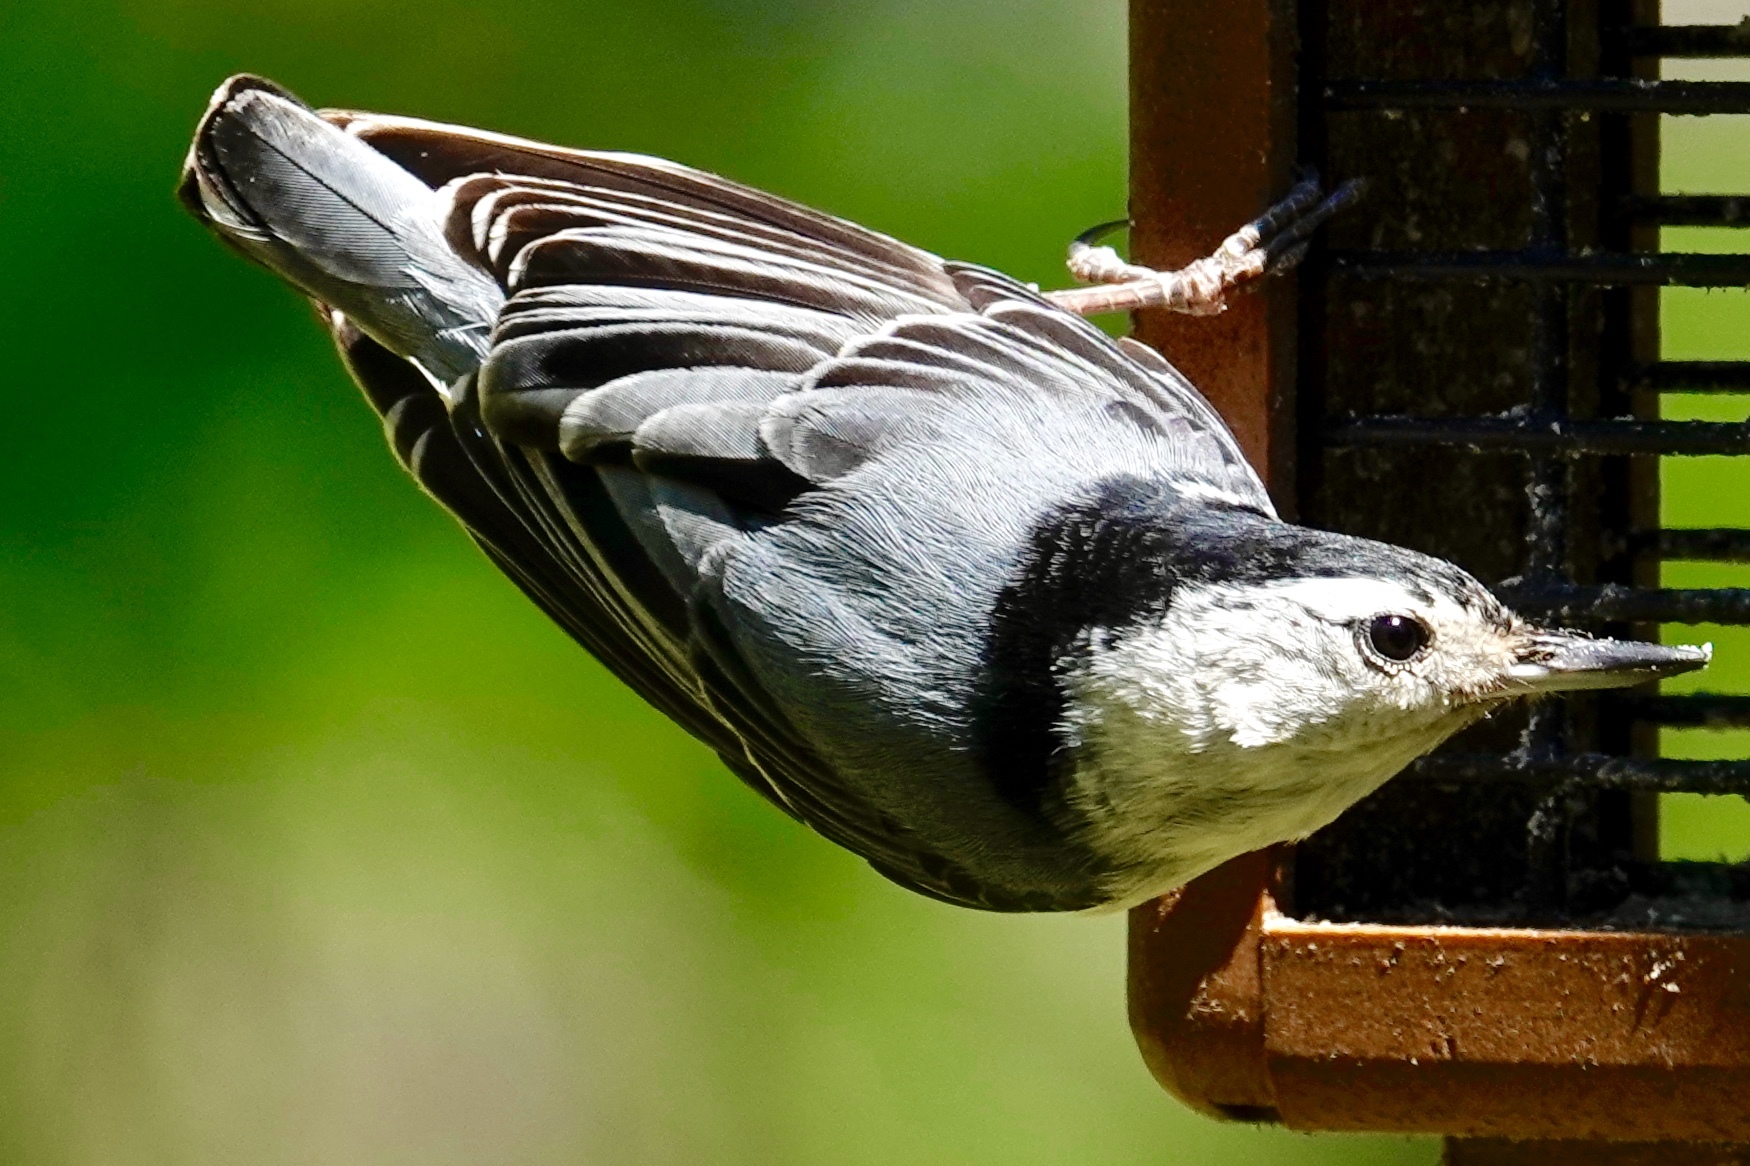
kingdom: Animalia
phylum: Chordata
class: Aves
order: Passeriformes
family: Sittidae
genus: Sitta
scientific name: Sitta carolinensis
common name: White-breasted nuthatch
